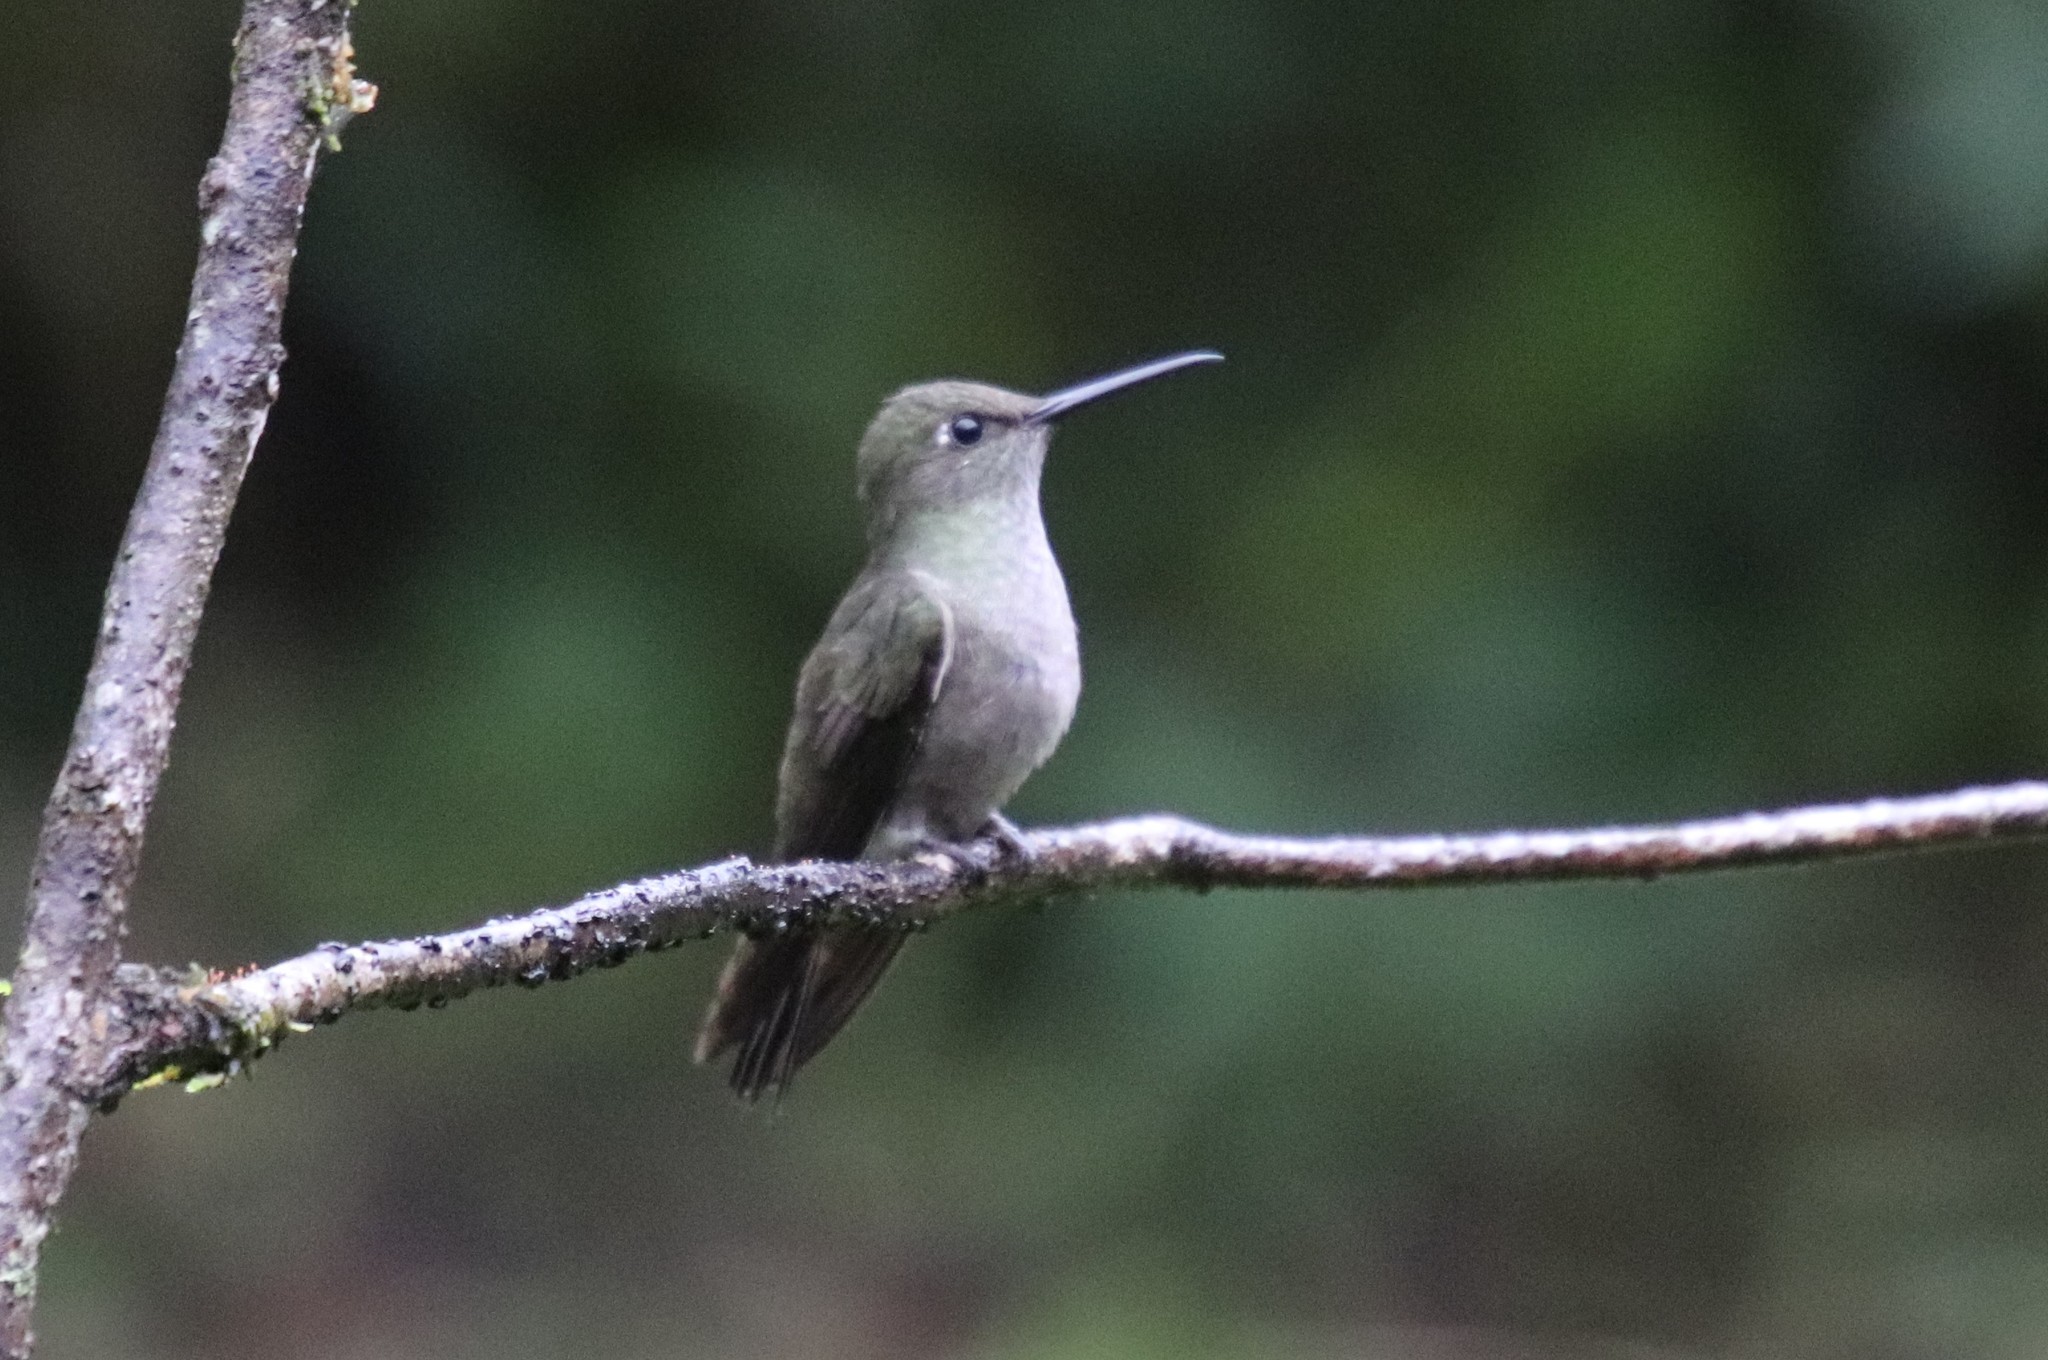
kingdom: Animalia
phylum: Chordata
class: Aves
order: Apodiformes
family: Trochilidae
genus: Eupetomena
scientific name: Eupetomena cirrochloris
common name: Sombre hummingbird
